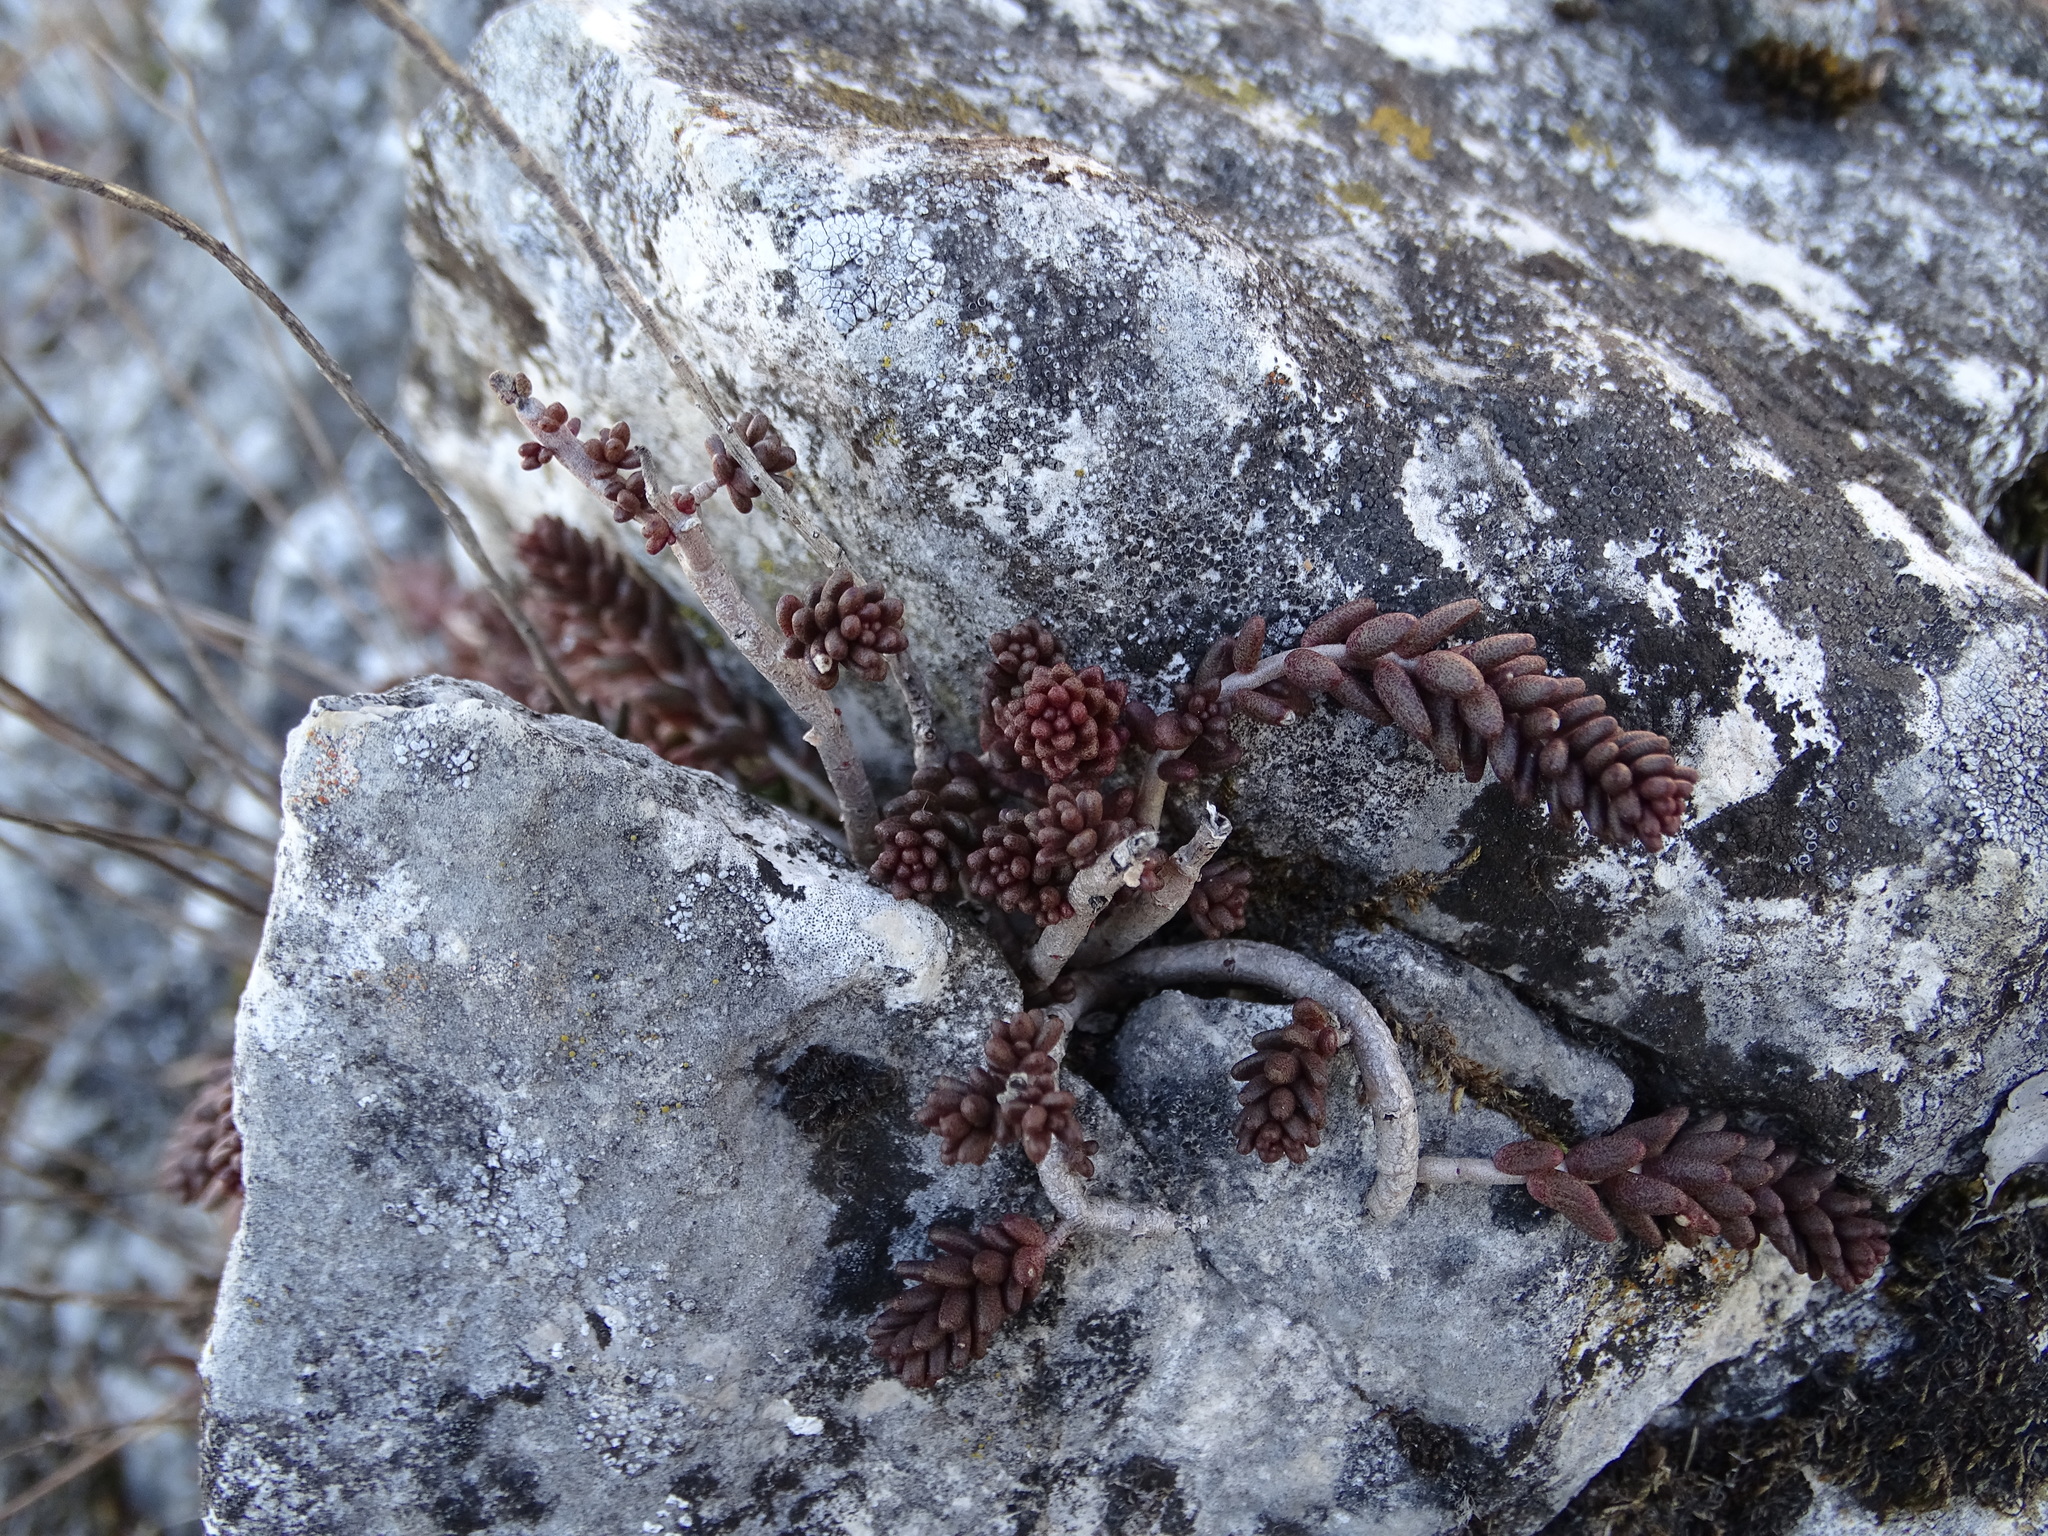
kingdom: Plantae
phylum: Tracheophyta
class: Magnoliopsida
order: Saxifragales
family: Crassulaceae
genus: Sedum
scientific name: Sedum album
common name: White stonecrop
